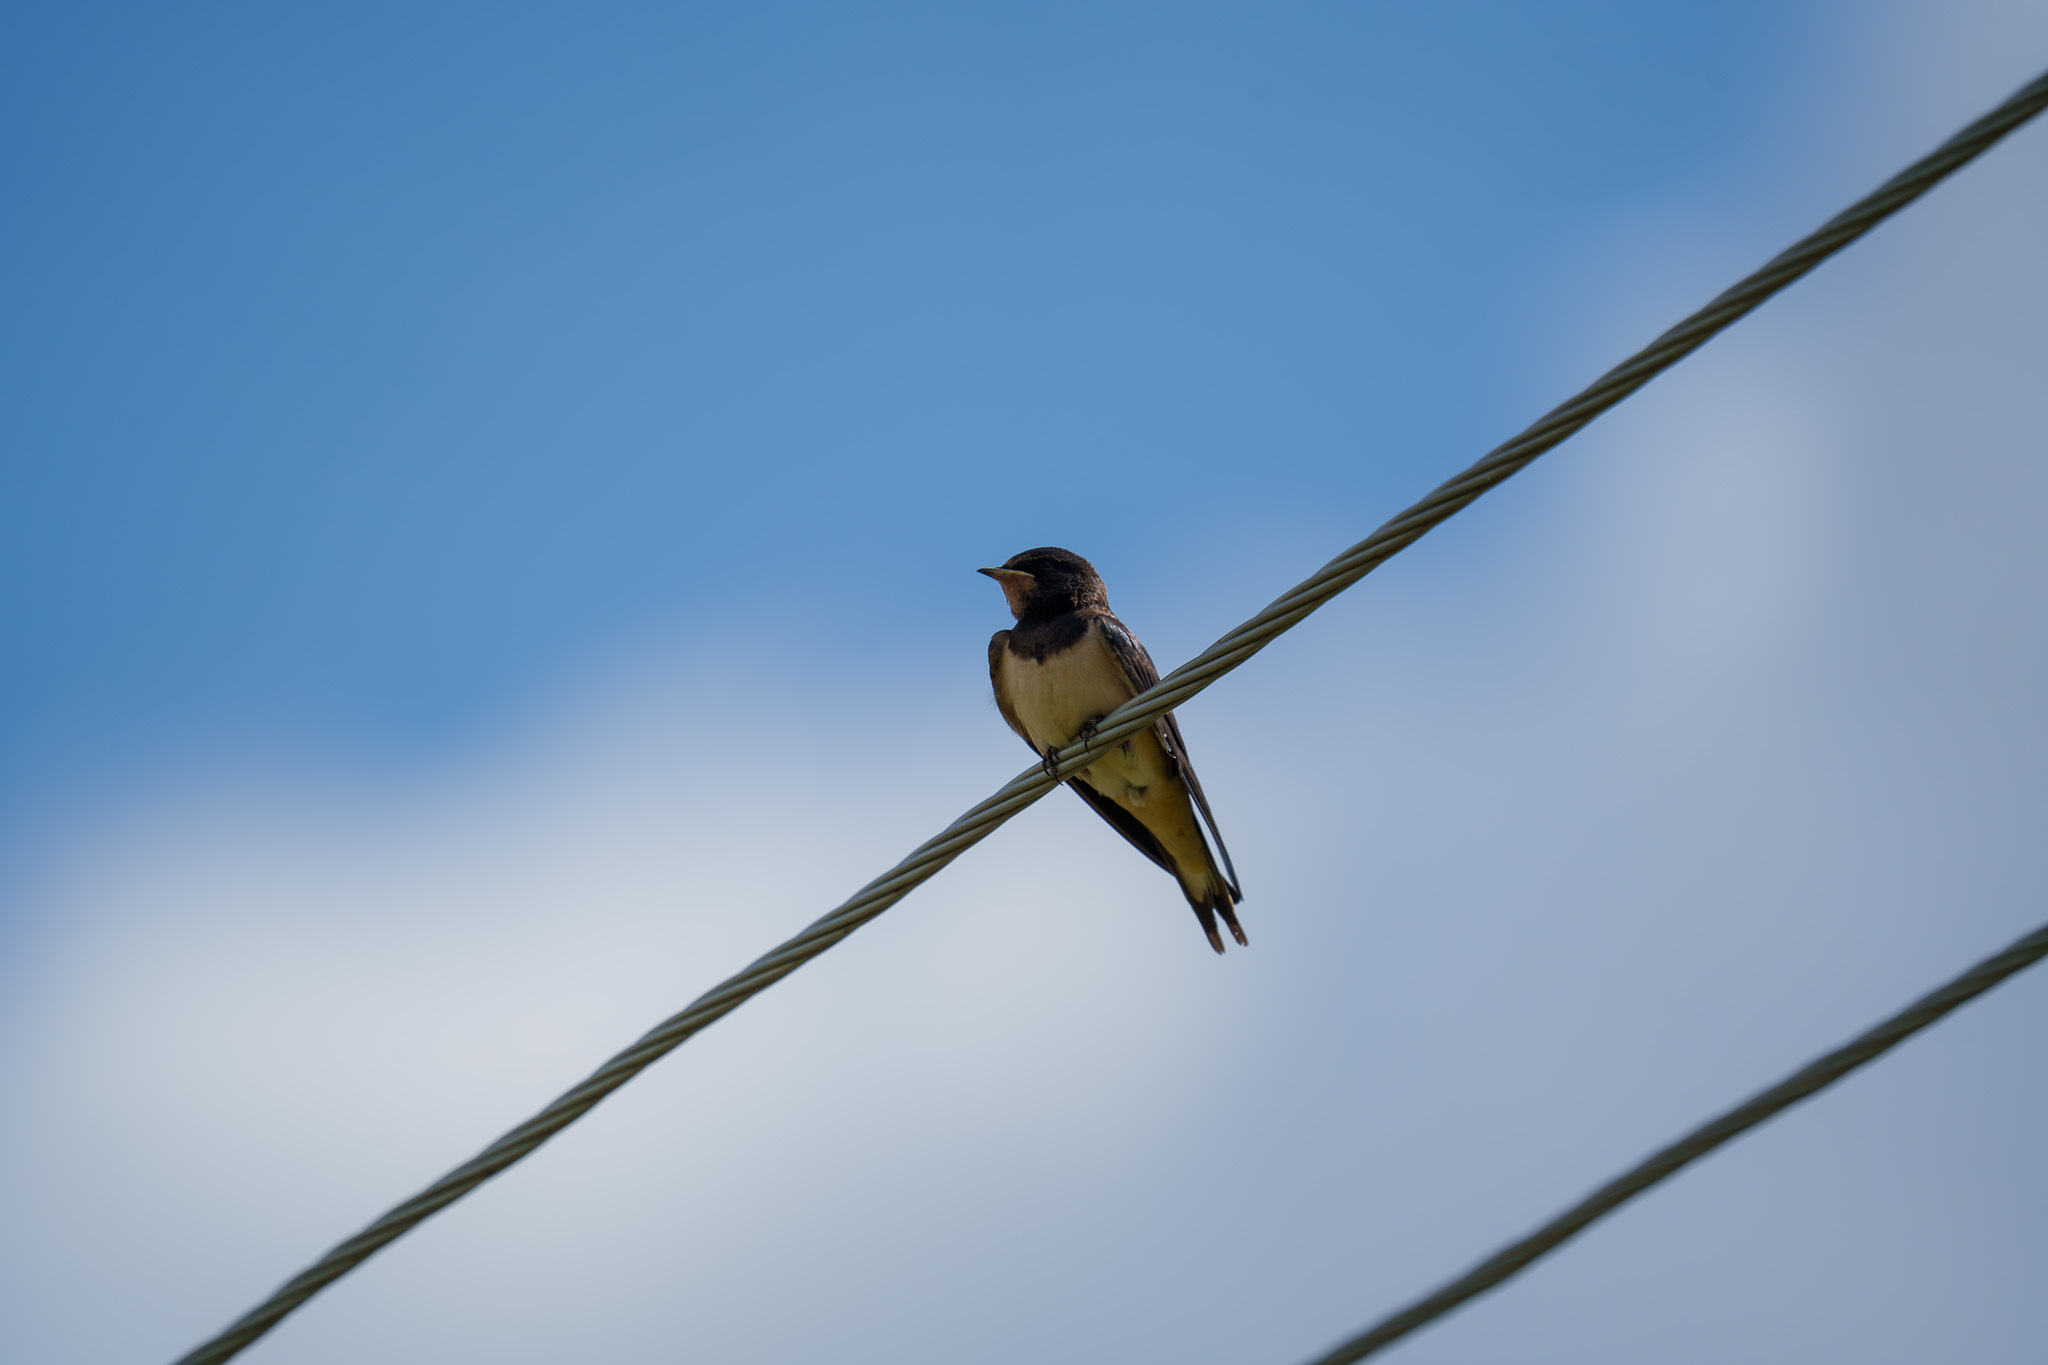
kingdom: Animalia
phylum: Chordata
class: Aves
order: Passeriformes
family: Hirundinidae
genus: Hirundo
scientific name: Hirundo rustica
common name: Barn swallow
